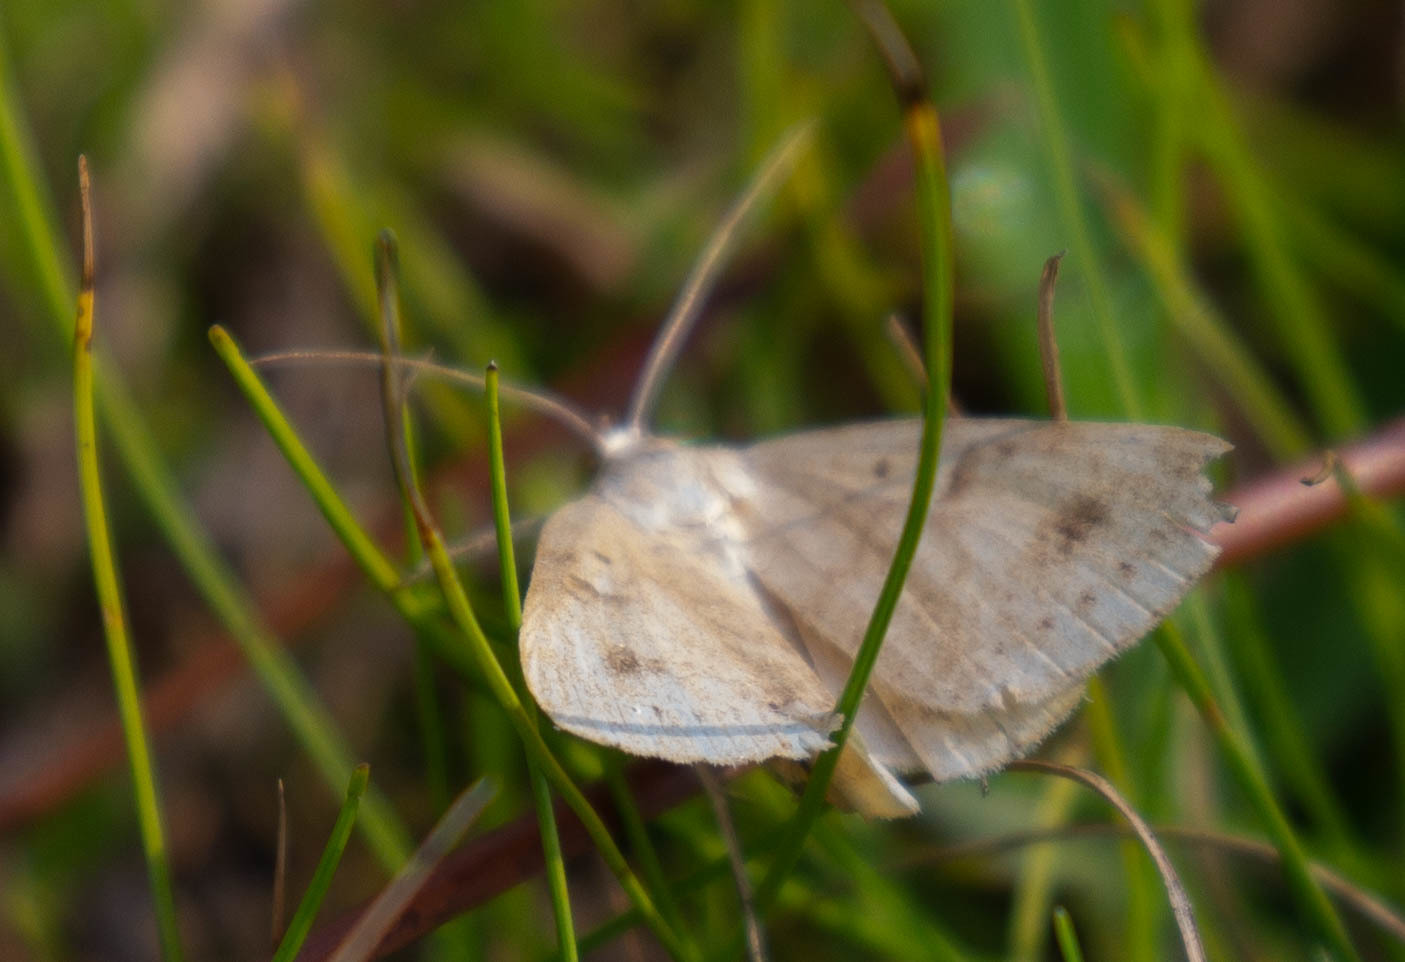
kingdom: Animalia
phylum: Arthropoda
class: Insecta
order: Lepidoptera
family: Erebidae
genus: Caenurgia
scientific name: Caenurgia chloropha
